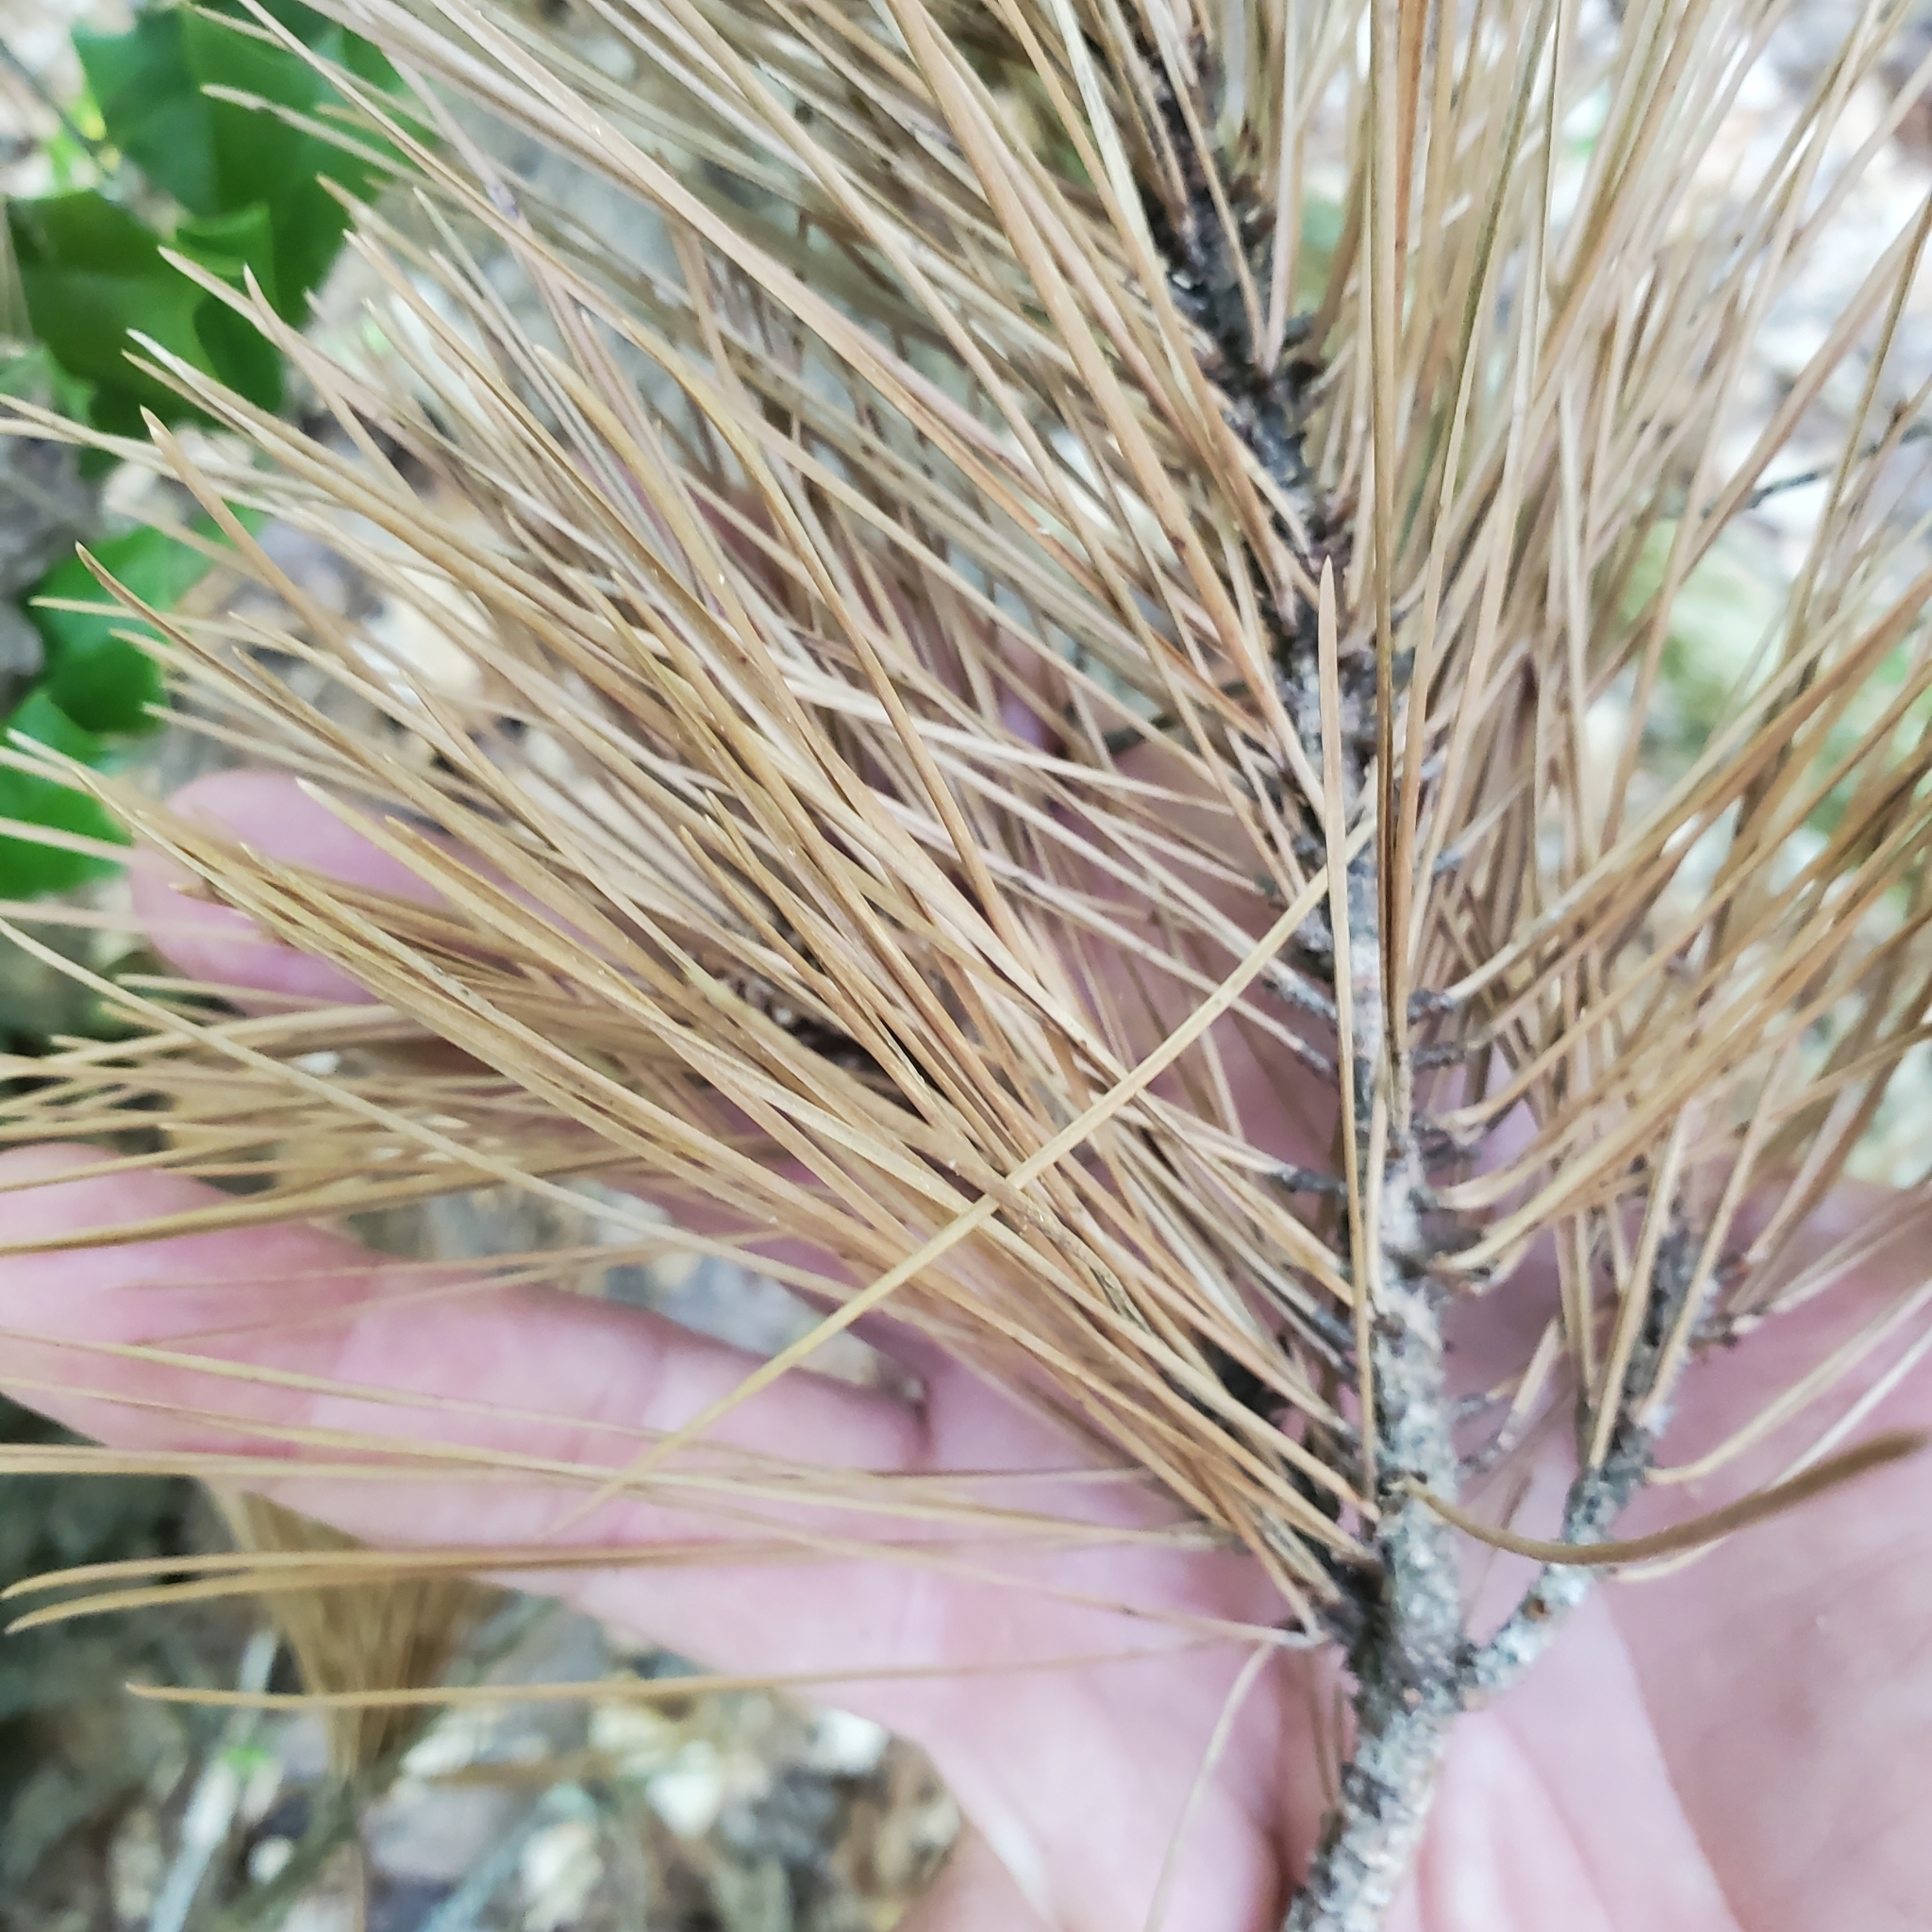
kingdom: Plantae
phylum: Tracheophyta
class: Pinopsida
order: Pinales
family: Pinaceae
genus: Pinus
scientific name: Pinus echinata
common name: Shortleaf pine
